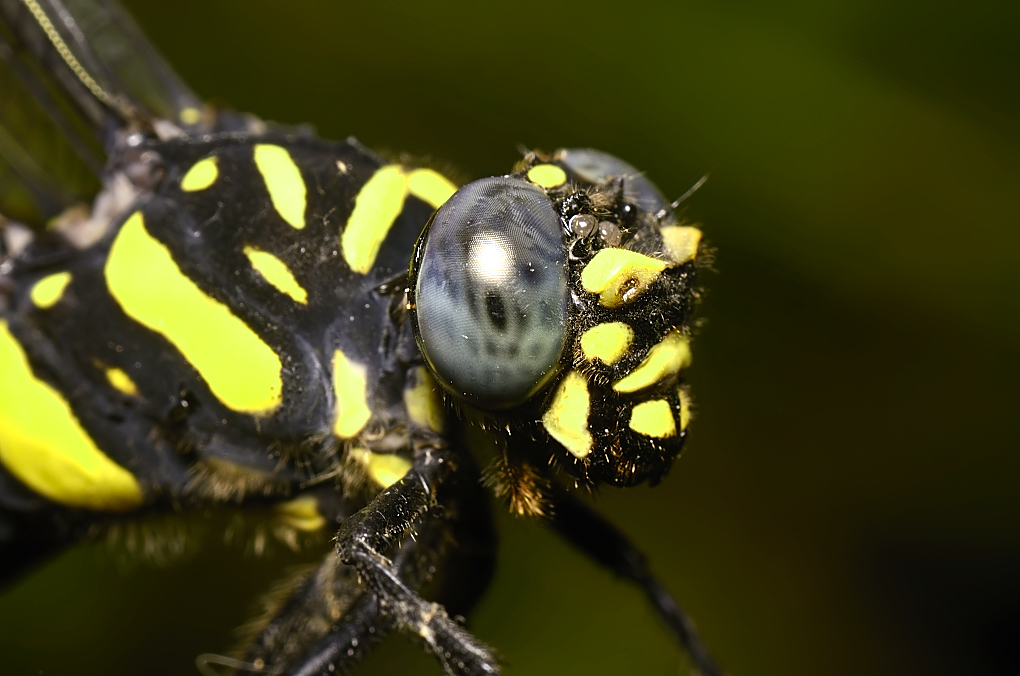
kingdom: Animalia
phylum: Arthropoda
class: Insecta
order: Odonata
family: Gomphidae
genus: Ictinogomphus
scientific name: Ictinogomphus rapax
